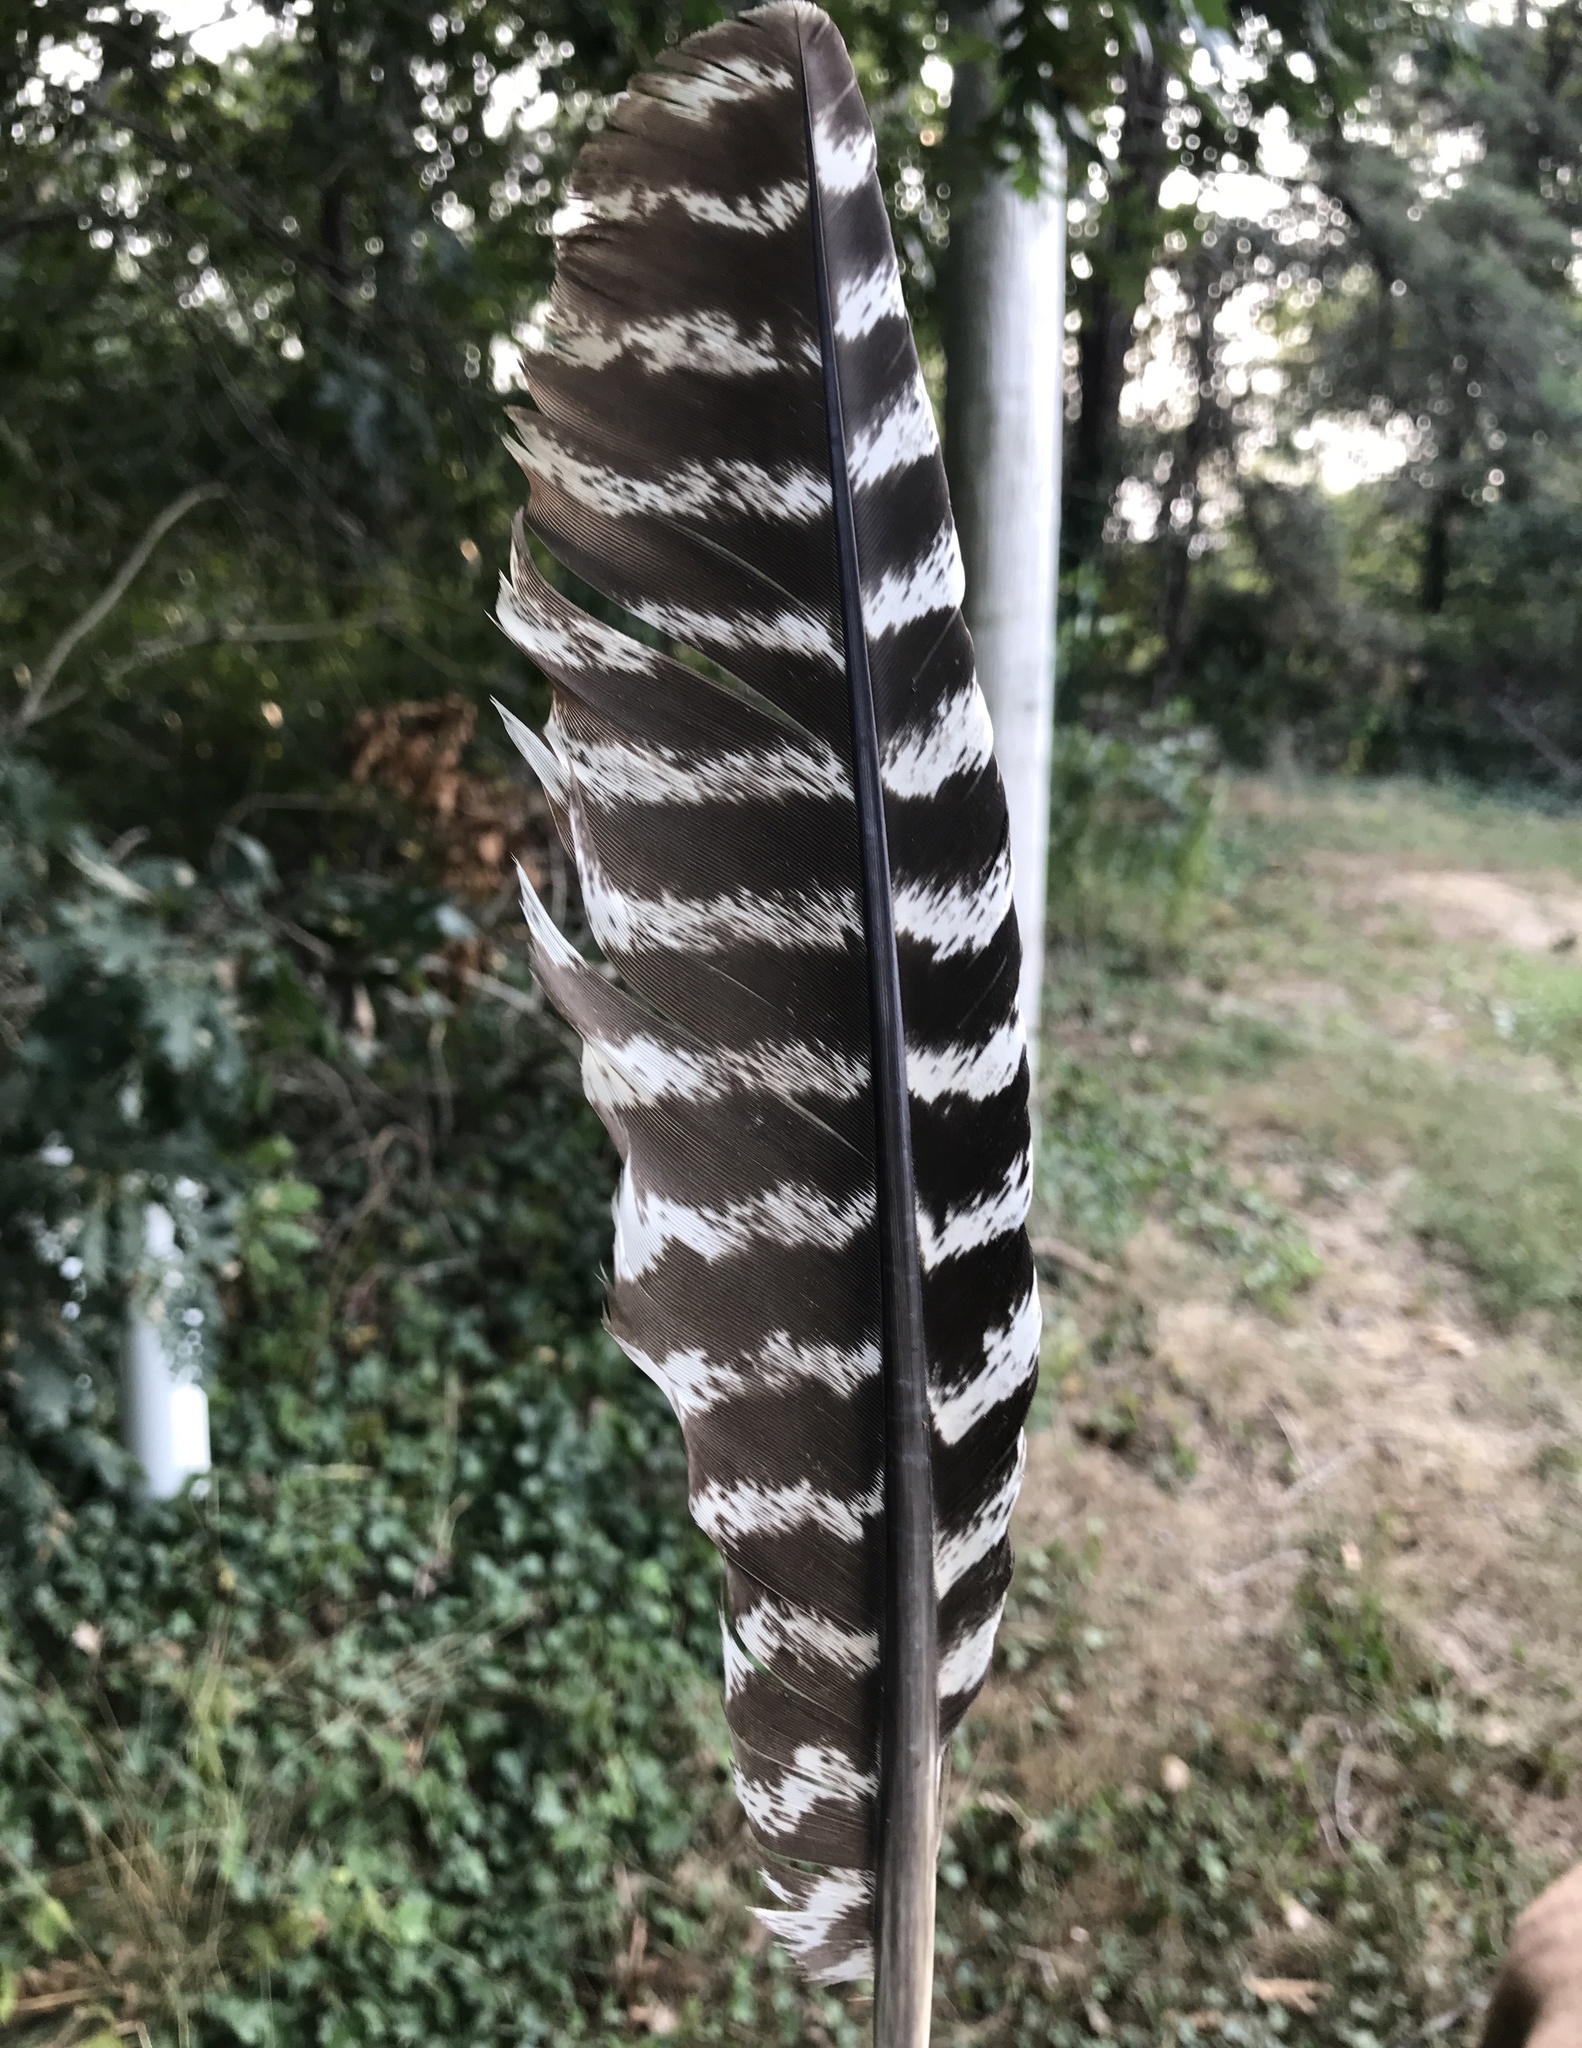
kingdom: Animalia
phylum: Chordata
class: Aves
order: Galliformes
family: Phasianidae
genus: Meleagris
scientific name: Meleagris gallopavo
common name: Wild turkey
